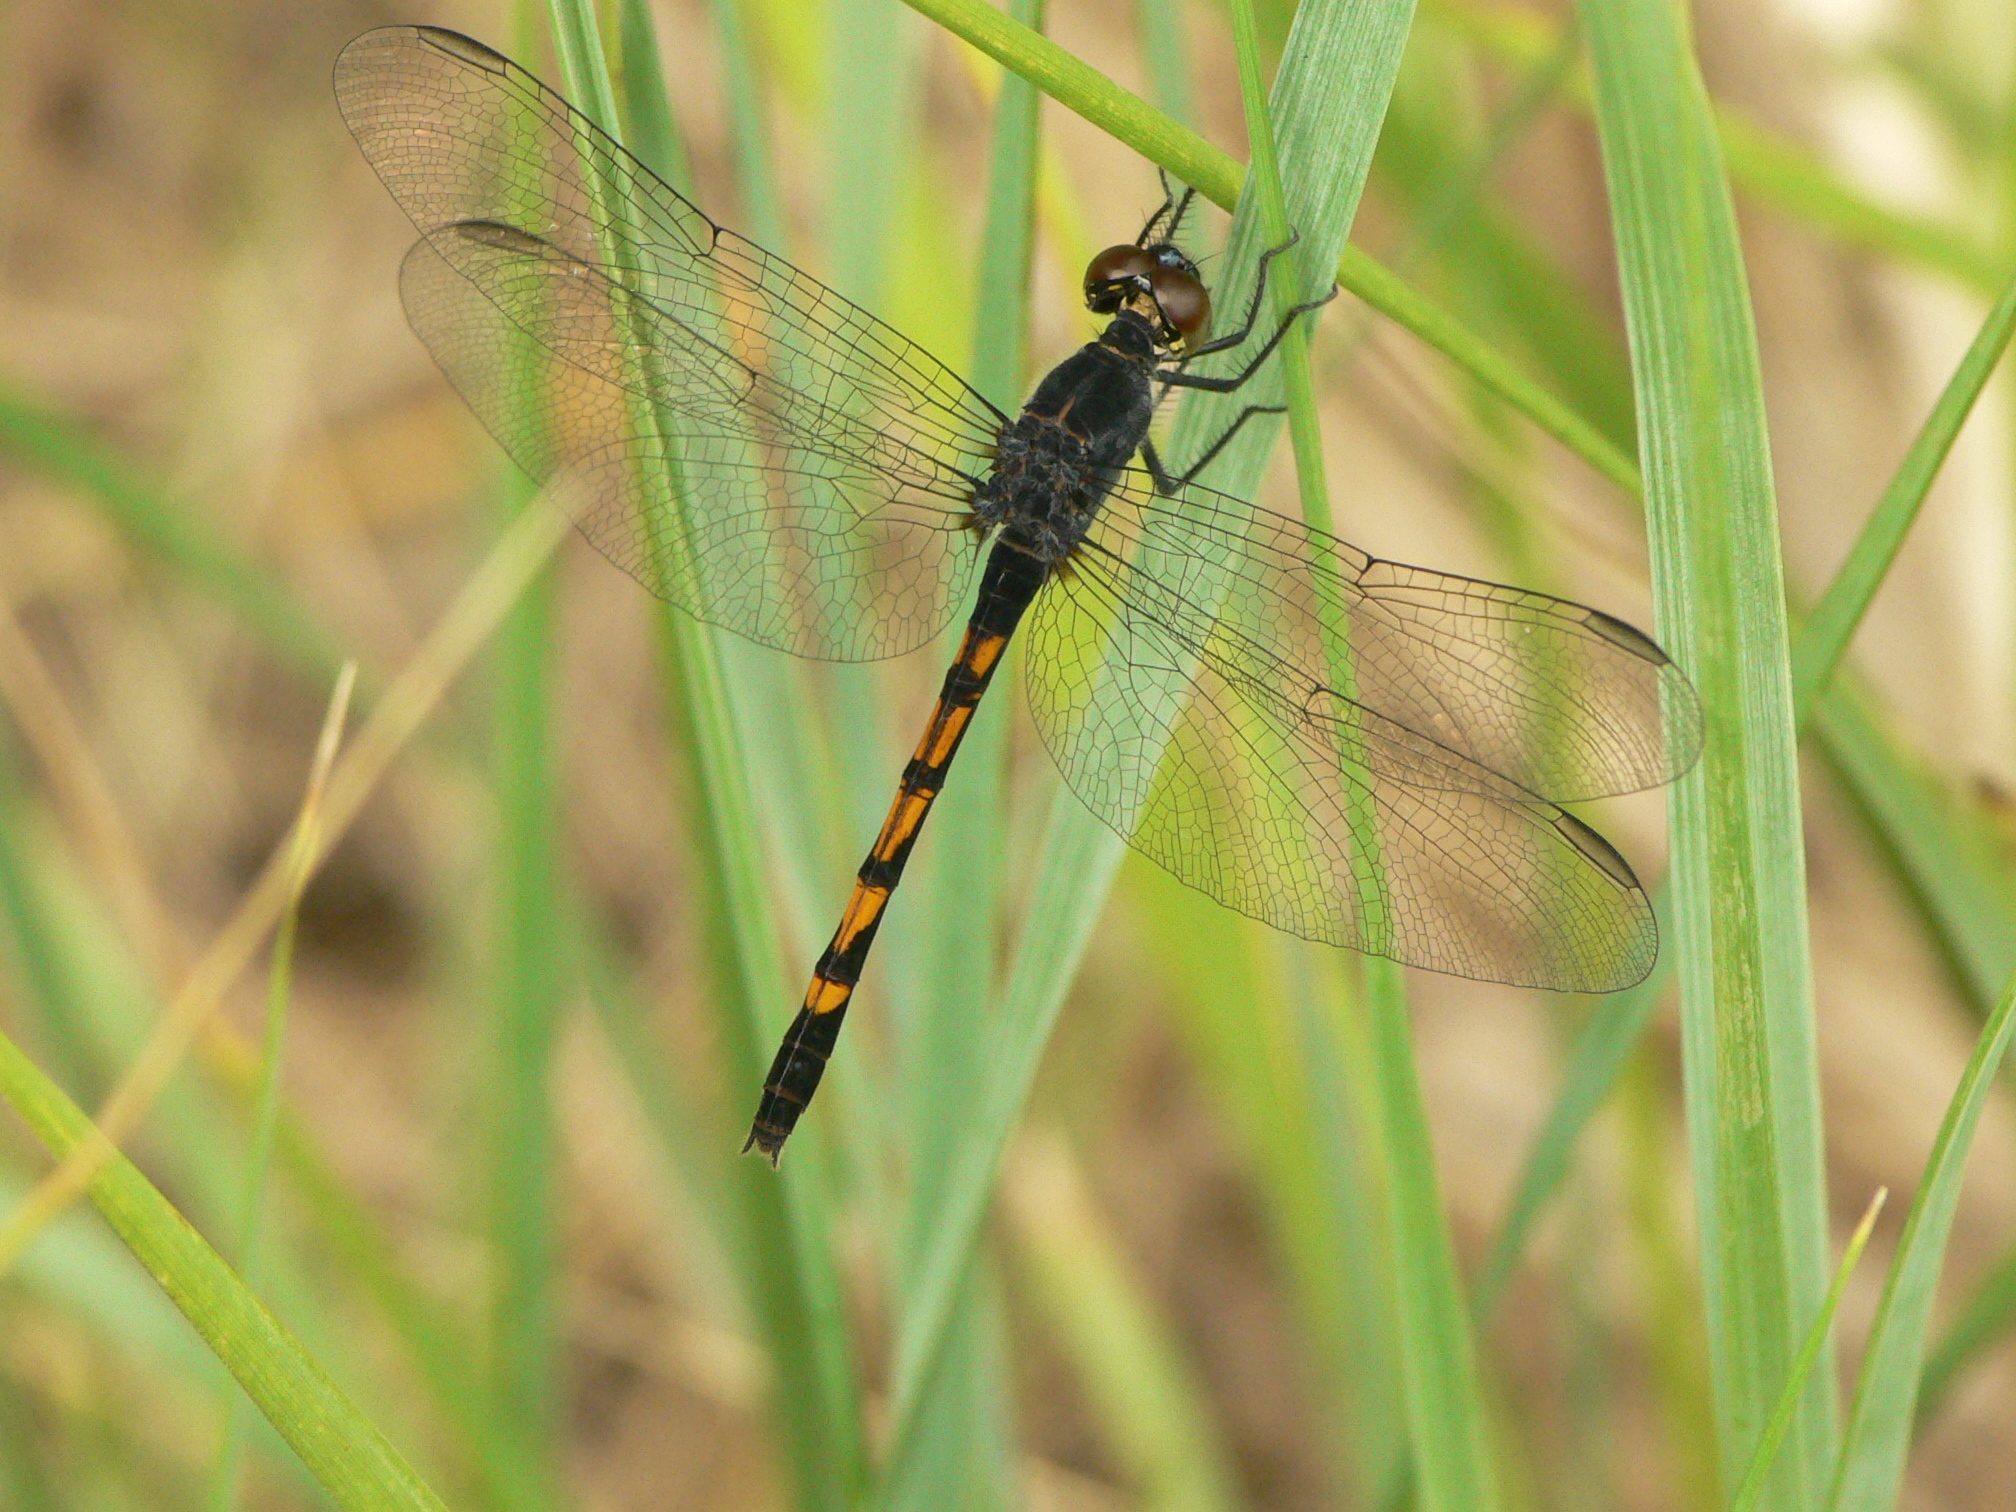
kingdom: Animalia
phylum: Arthropoda
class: Insecta
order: Odonata
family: Libellulidae
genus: Erythrodiplax
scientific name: Erythrodiplax berenice
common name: Seaside dragonlet
